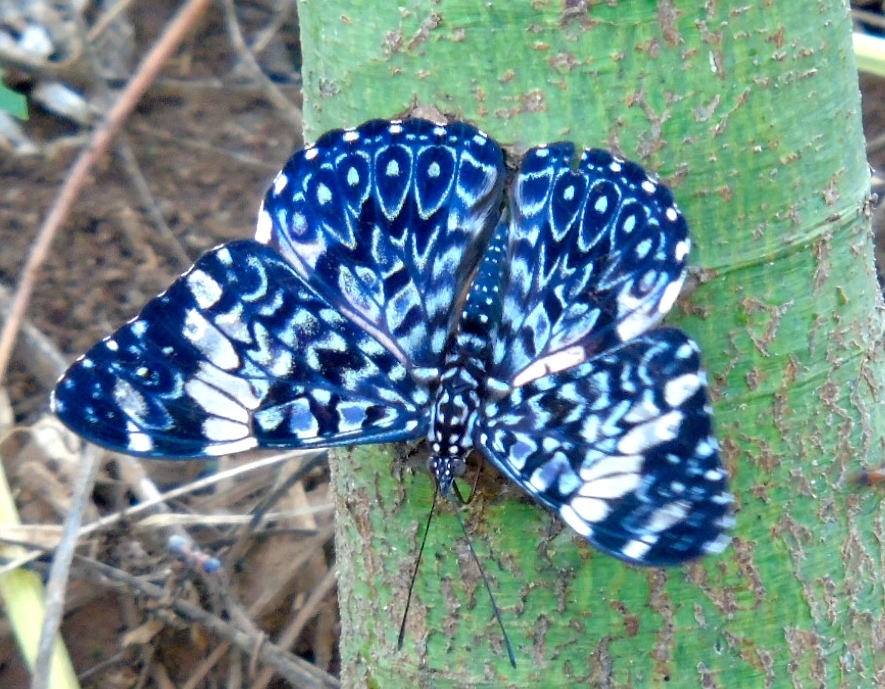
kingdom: Animalia
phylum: Arthropoda
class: Insecta
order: Lepidoptera
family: Nymphalidae
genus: Hamadryas
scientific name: Hamadryas amphinome
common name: Red cracker
